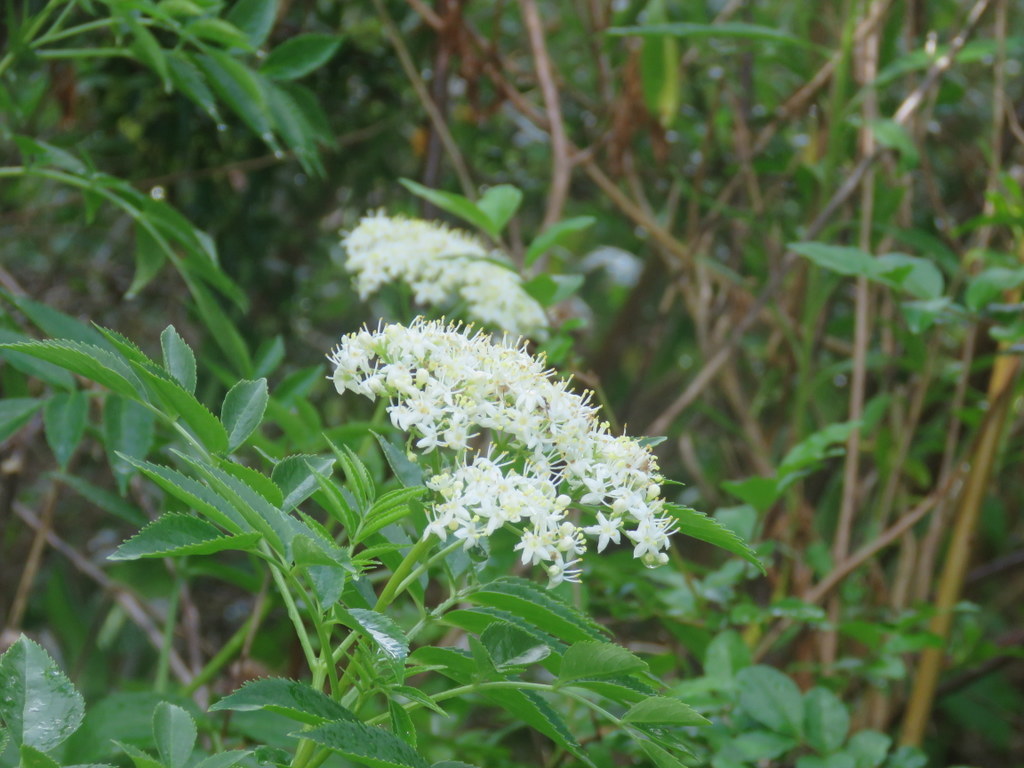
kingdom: Plantae
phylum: Tracheophyta
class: Magnoliopsida
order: Dipsacales
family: Viburnaceae
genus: Sambucus
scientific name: Sambucus australis
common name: Southern elder
